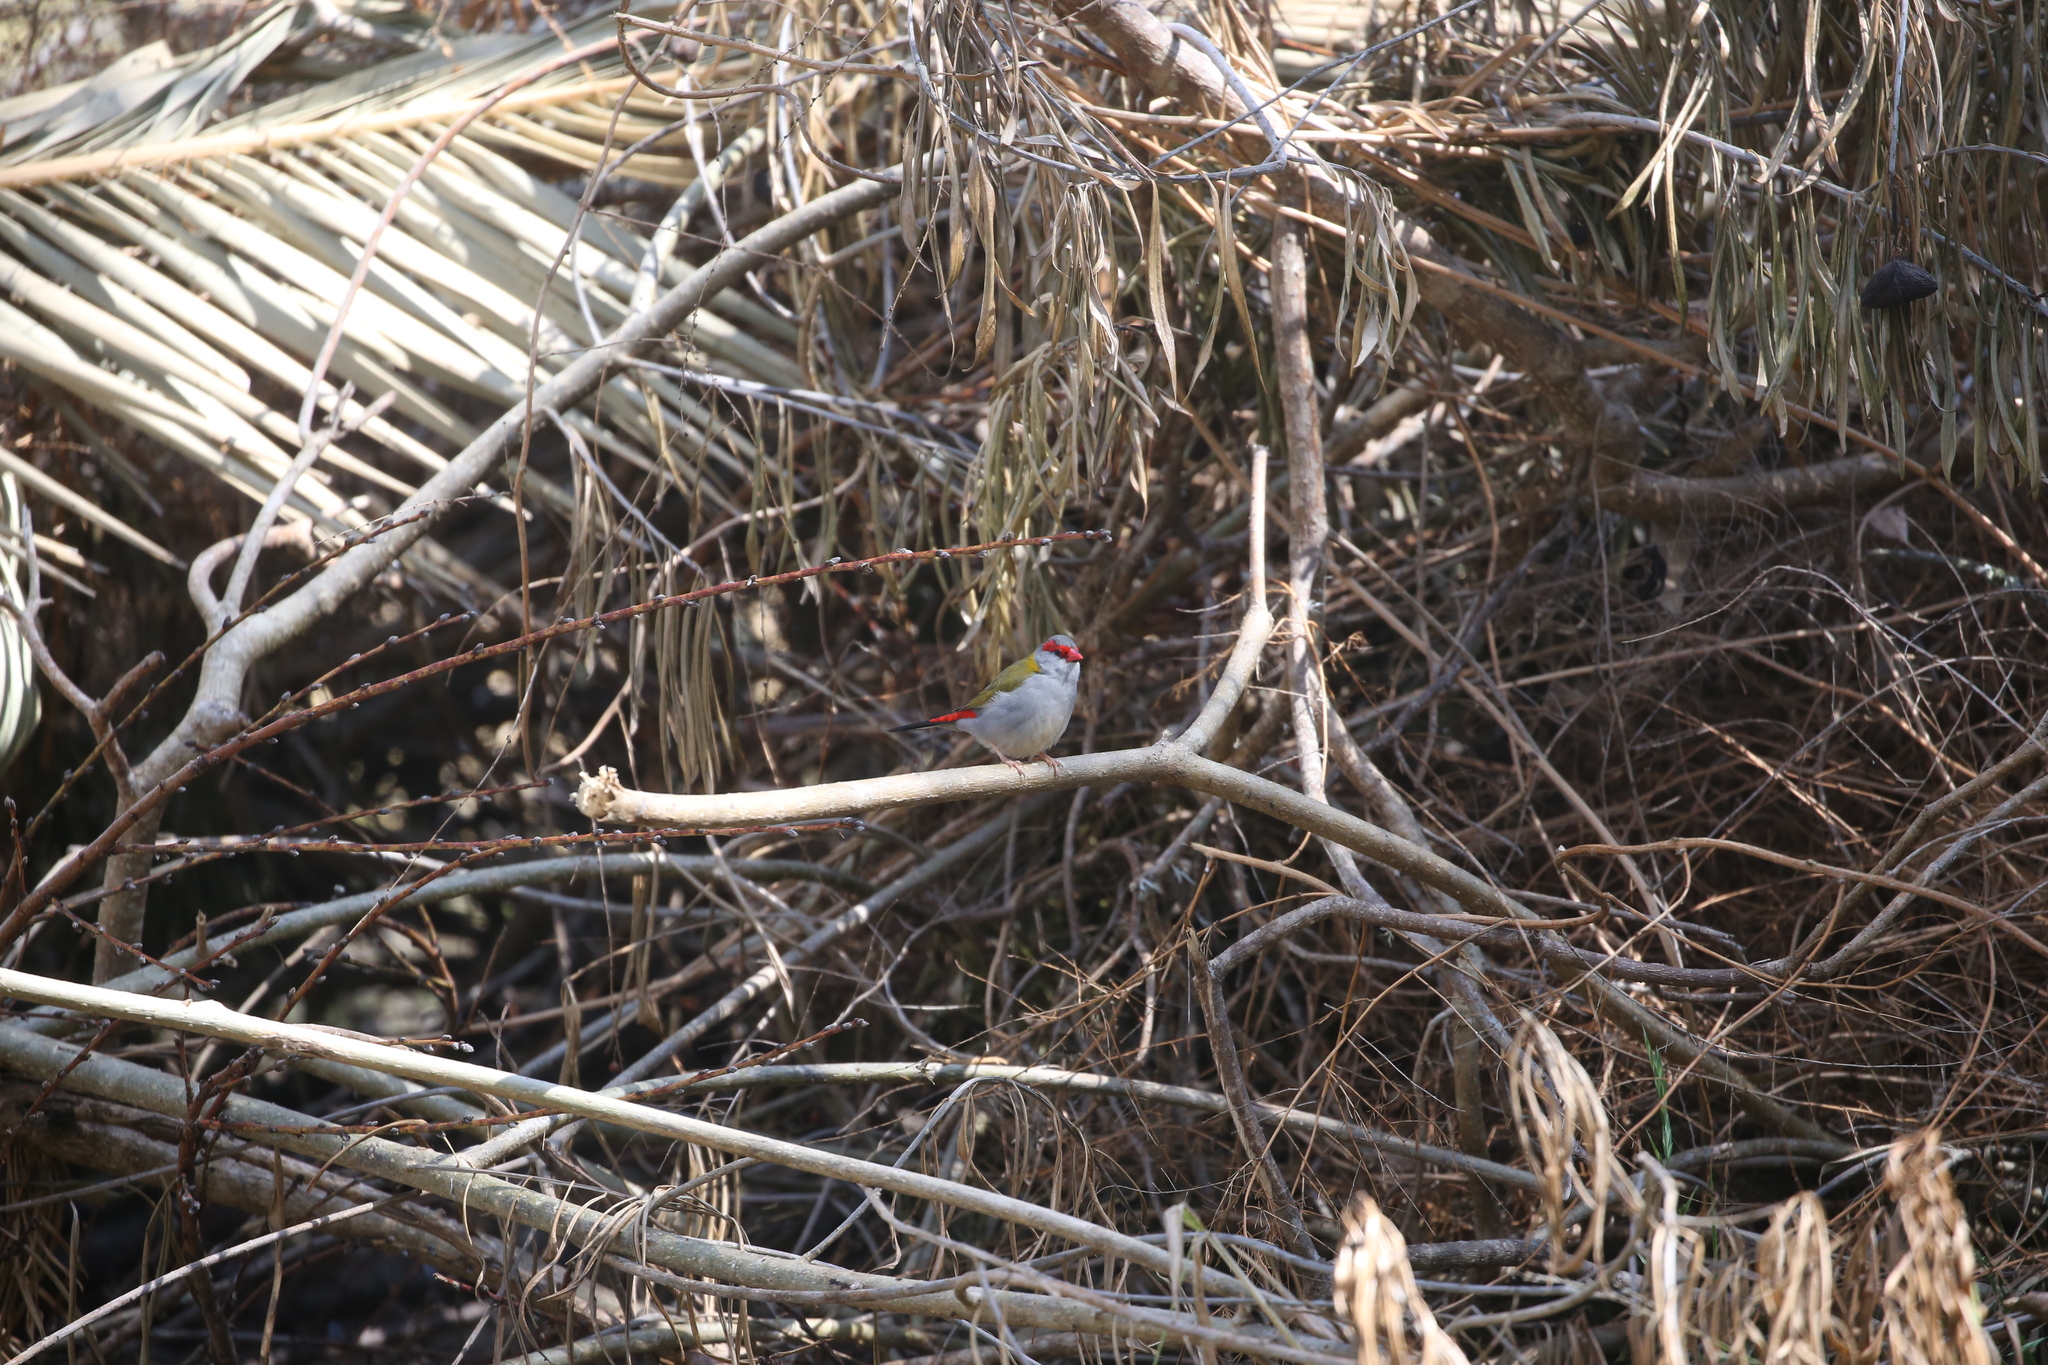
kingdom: Animalia
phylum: Chordata
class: Aves
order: Passeriformes
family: Estrildidae
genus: Neochmia
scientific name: Neochmia temporalis
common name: Red-browed finch
